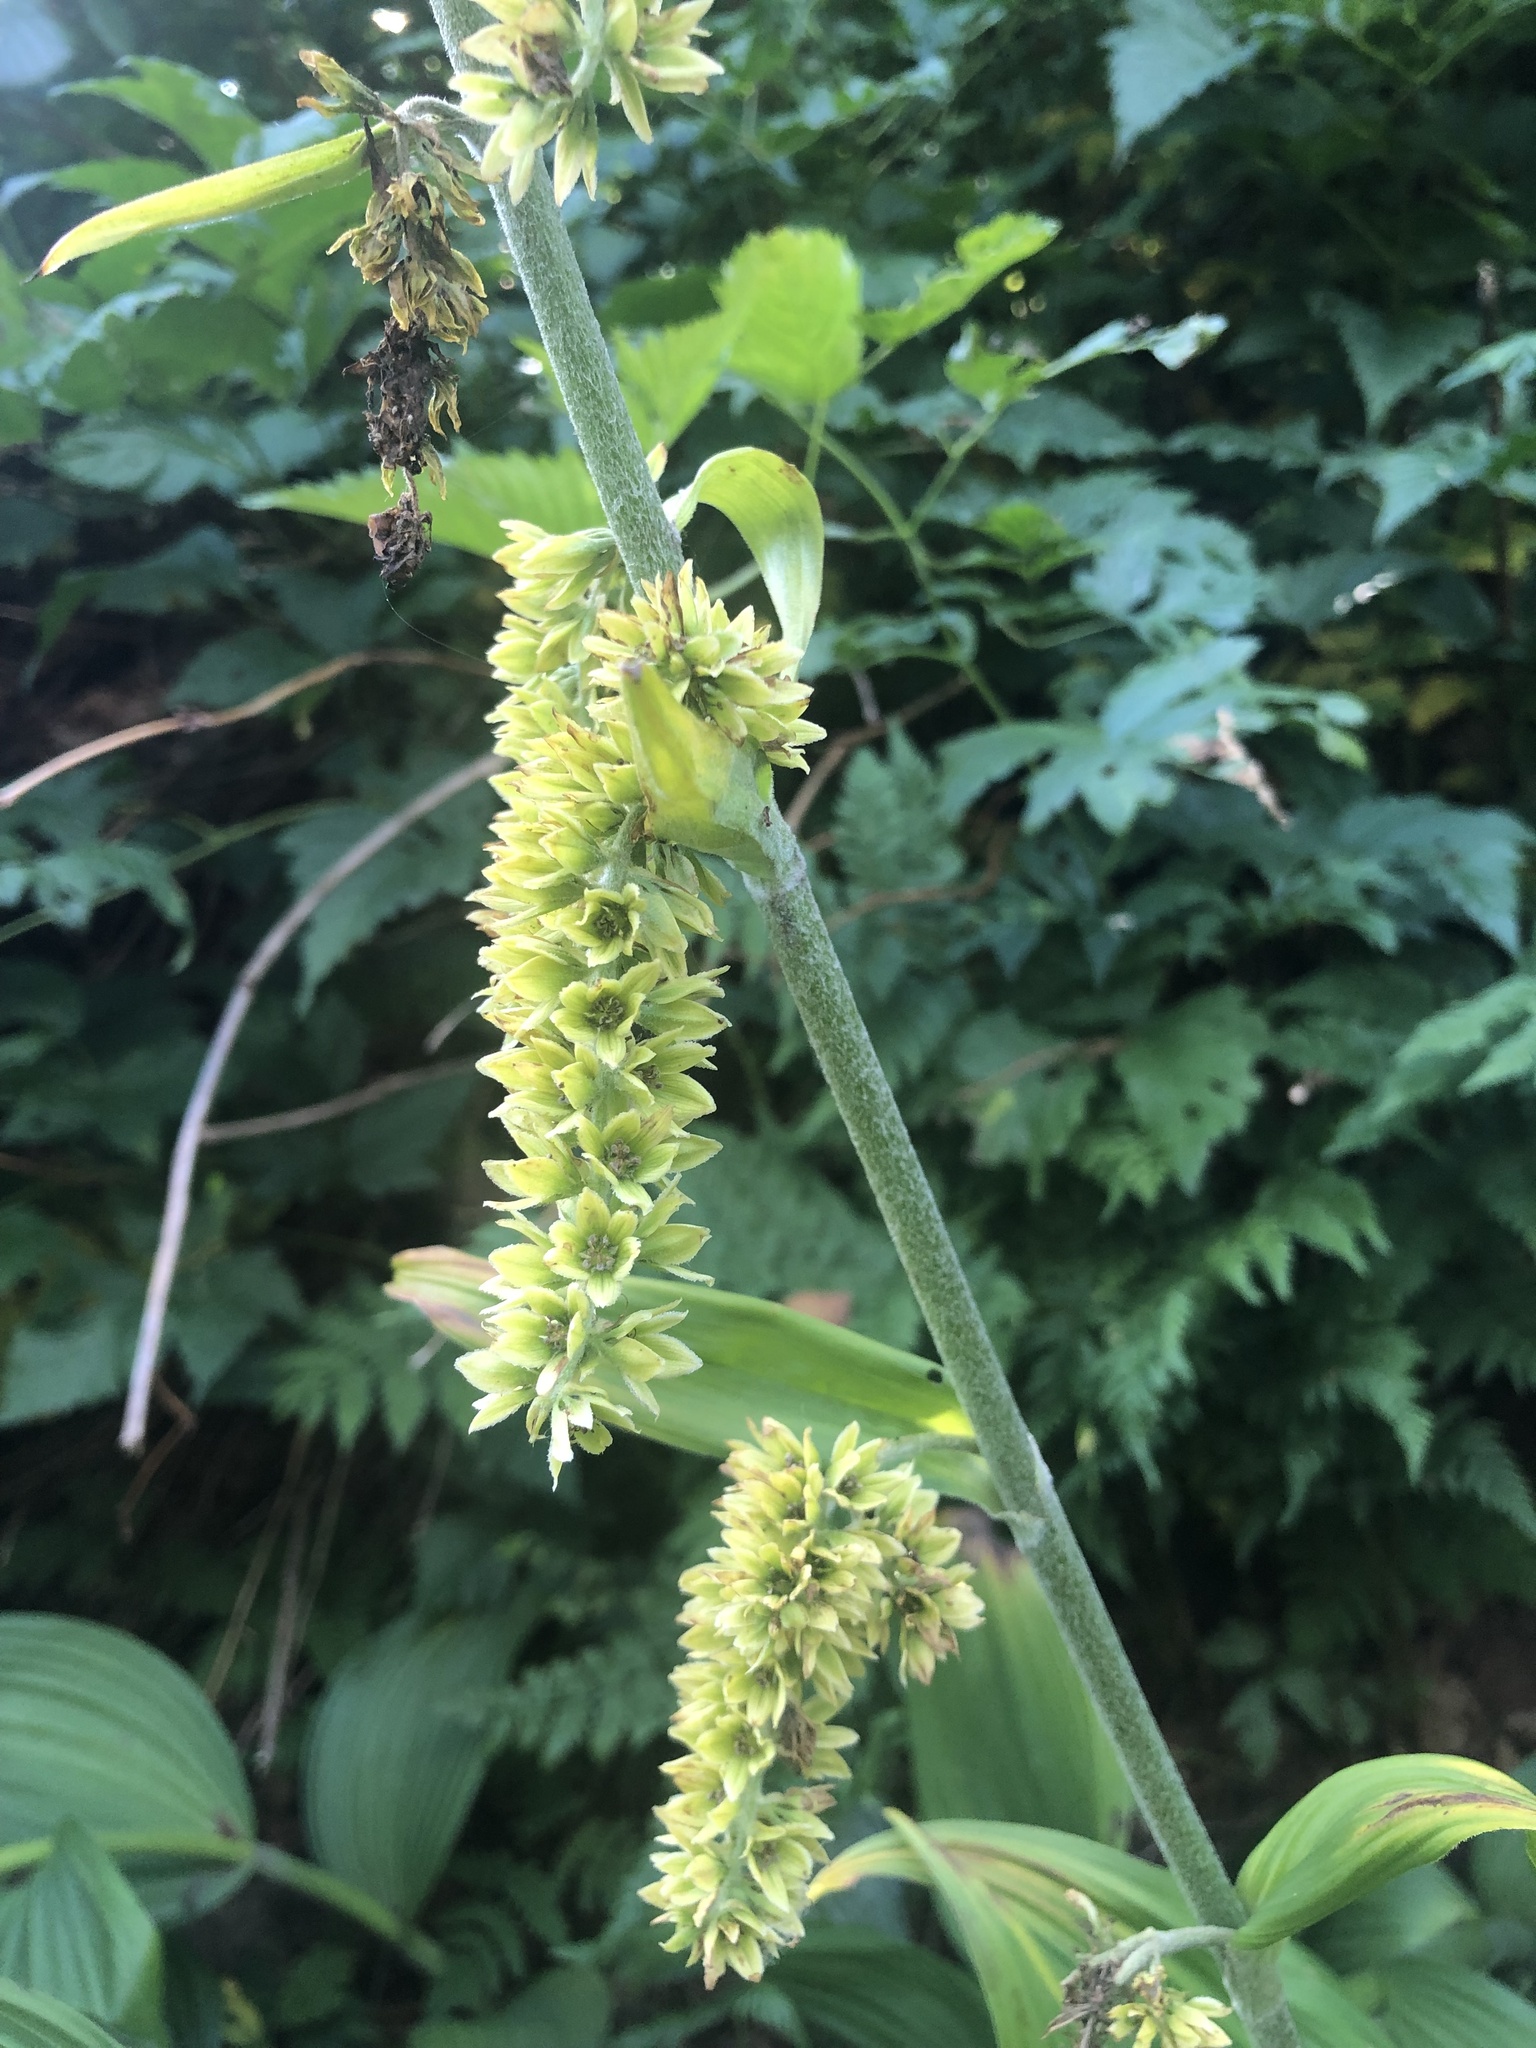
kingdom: Plantae
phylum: Tracheophyta
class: Liliopsida
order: Liliales
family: Melanthiaceae
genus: Veratrum
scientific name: Veratrum viride
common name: American false hellebore
